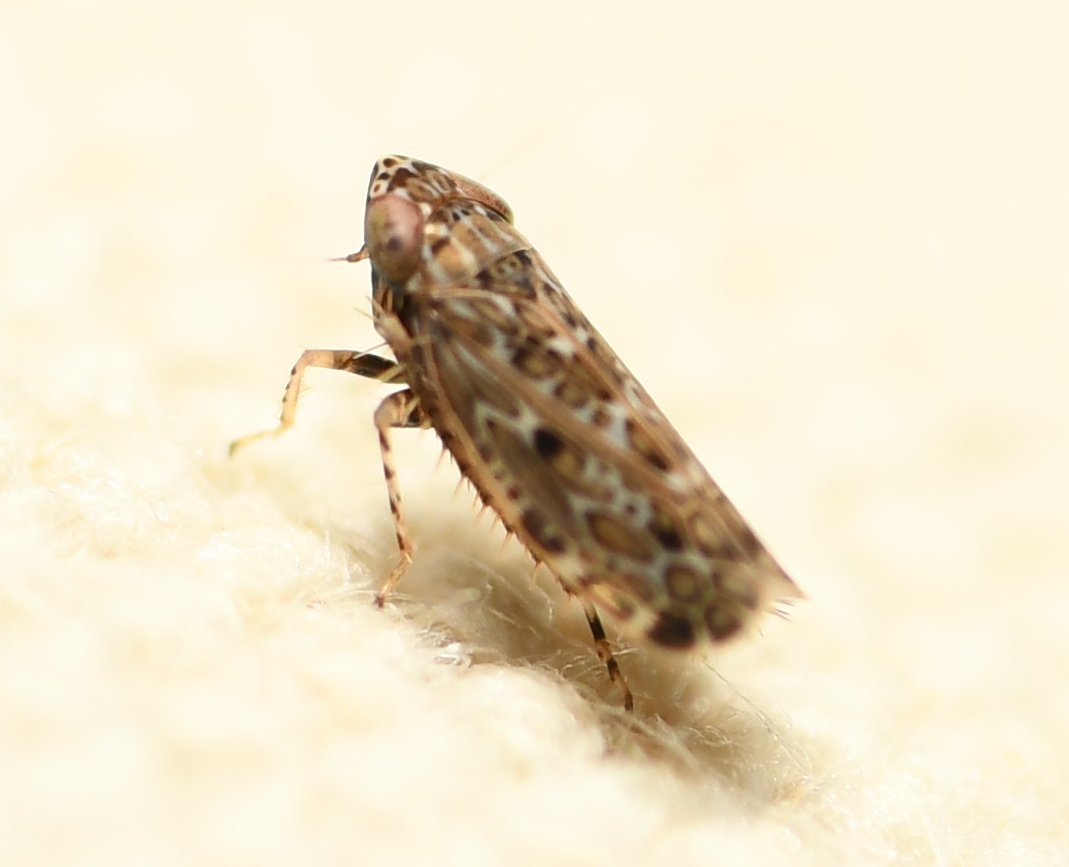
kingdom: Animalia
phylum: Arthropoda
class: Insecta
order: Hemiptera
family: Cicadellidae
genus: Polyamia
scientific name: Polyamia weedi
